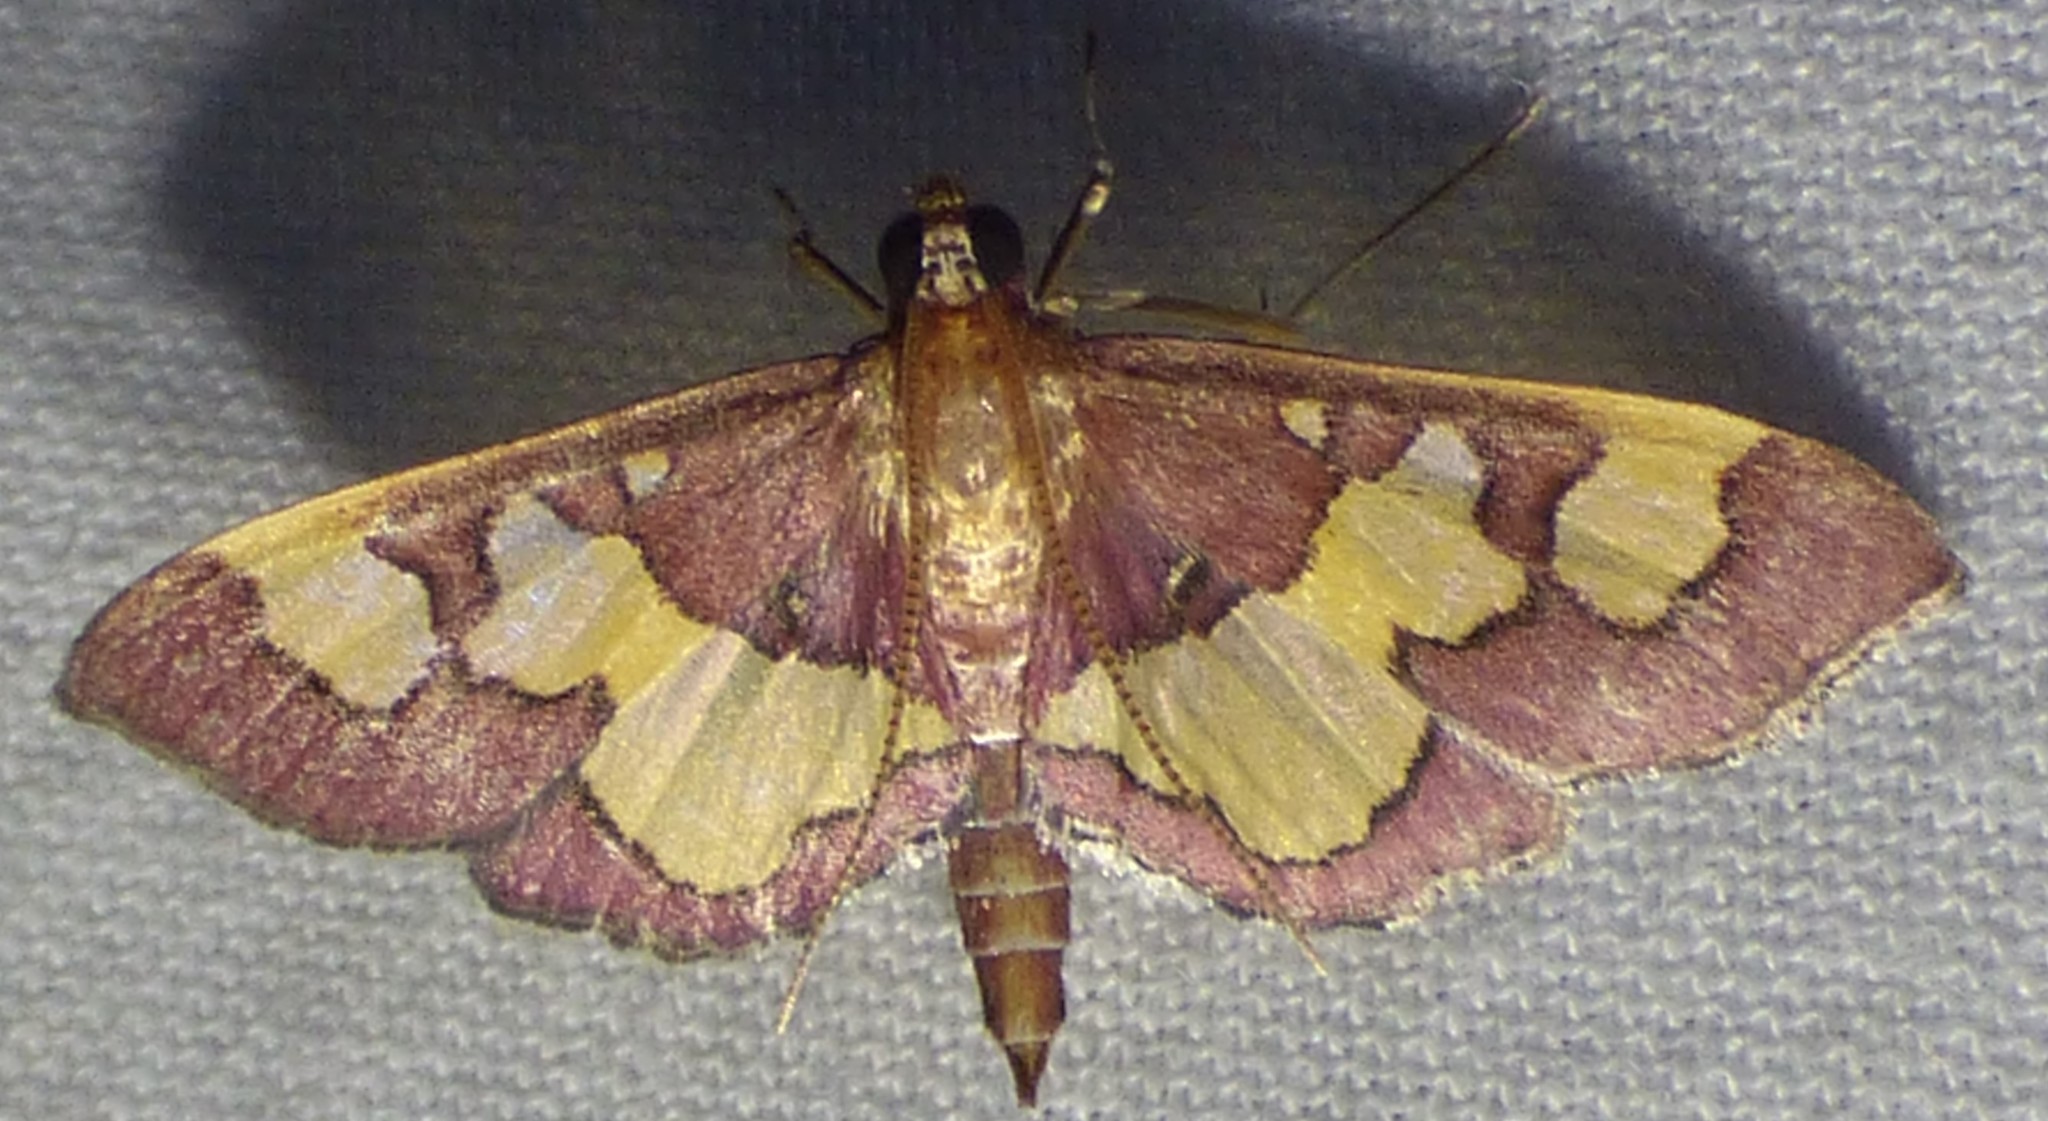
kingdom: Animalia
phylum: Arthropoda
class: Insecta
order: Lepidoptera
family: Crambidae
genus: Colomychus
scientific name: Colomychus talis
